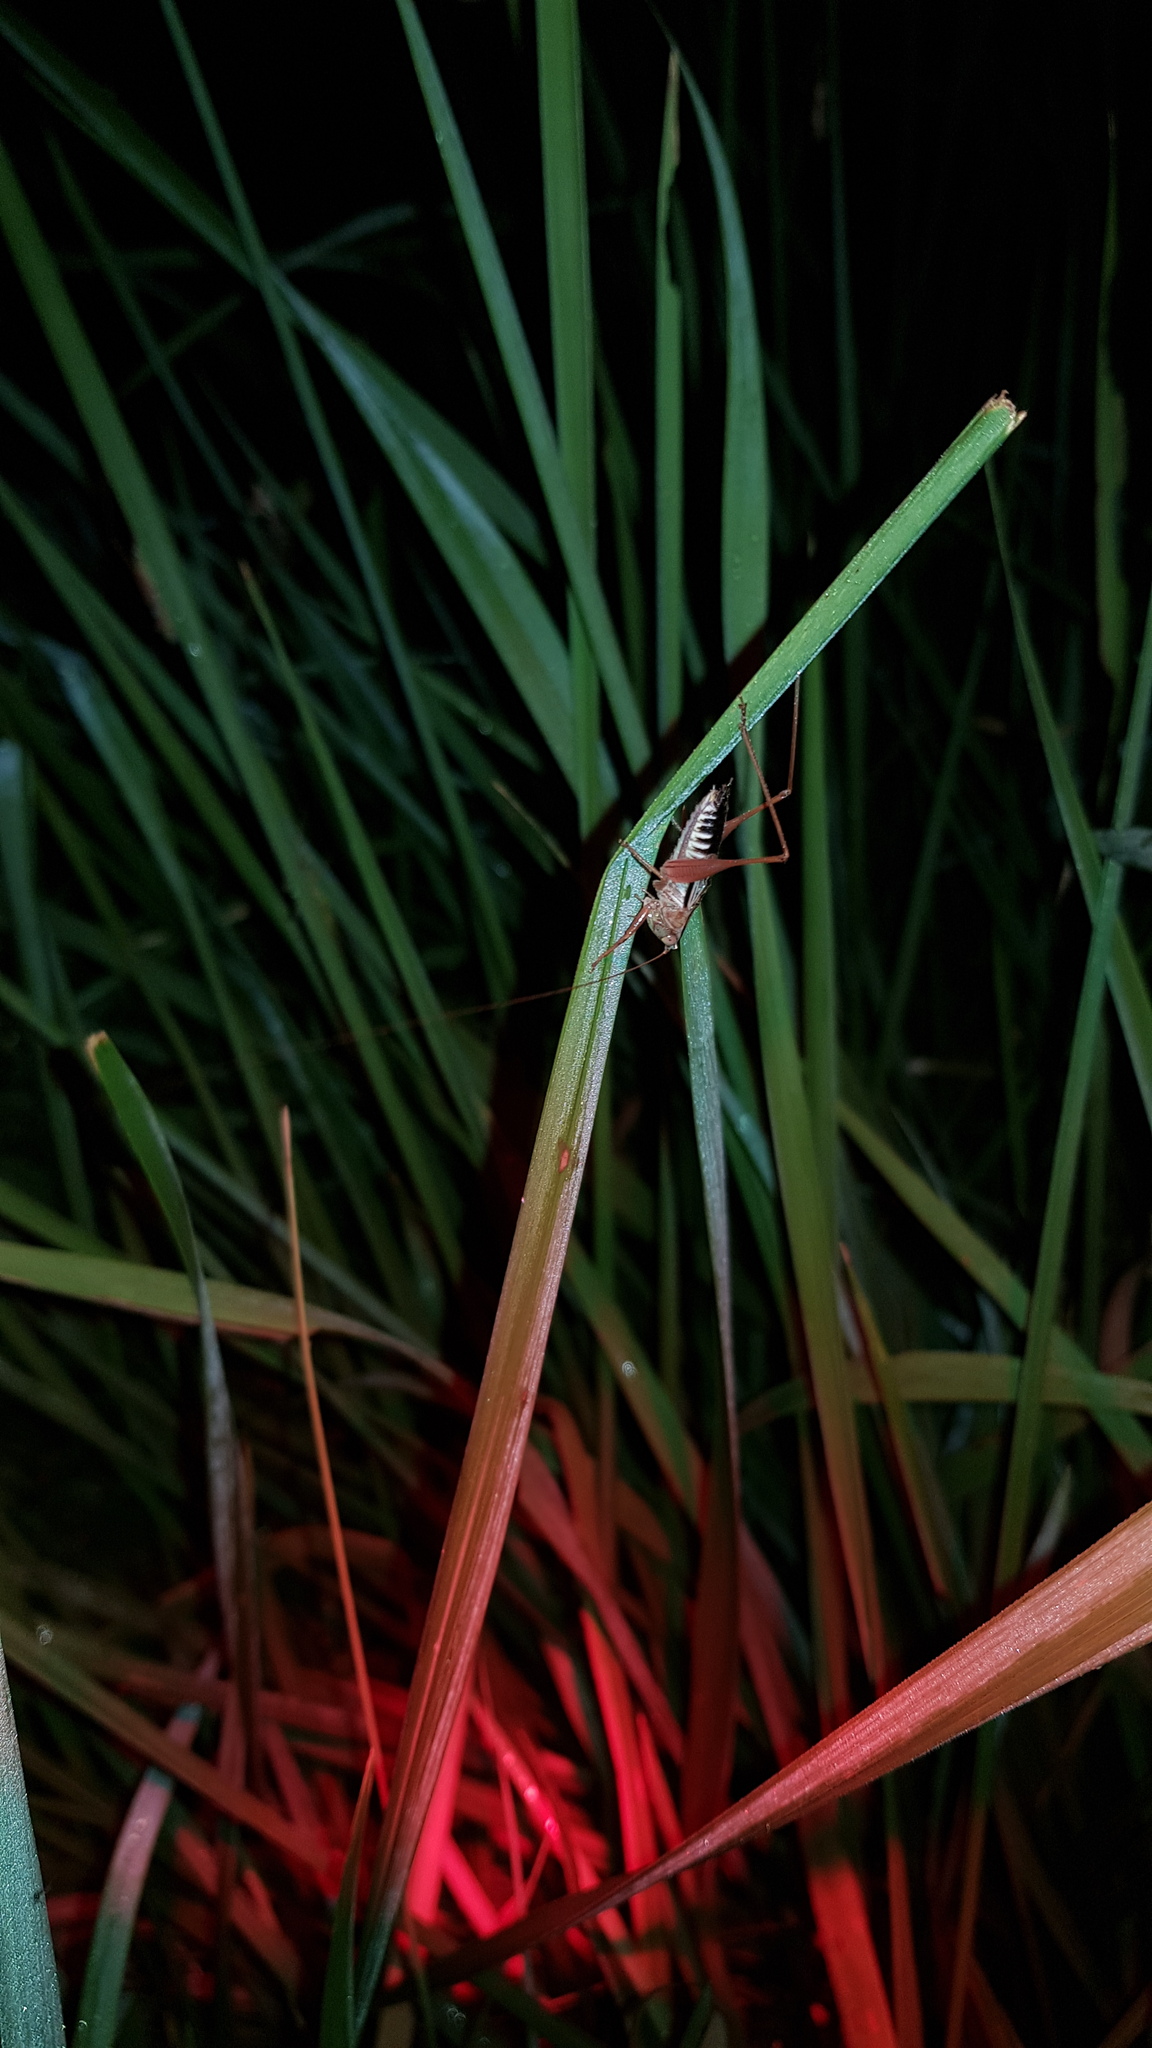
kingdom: Animalia
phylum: Arthropoda
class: Insecta
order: Orthoptera
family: Tettigoniidae
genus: Conocephalus
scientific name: Conocephalus semivittatus
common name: Blackish meadow katydid
